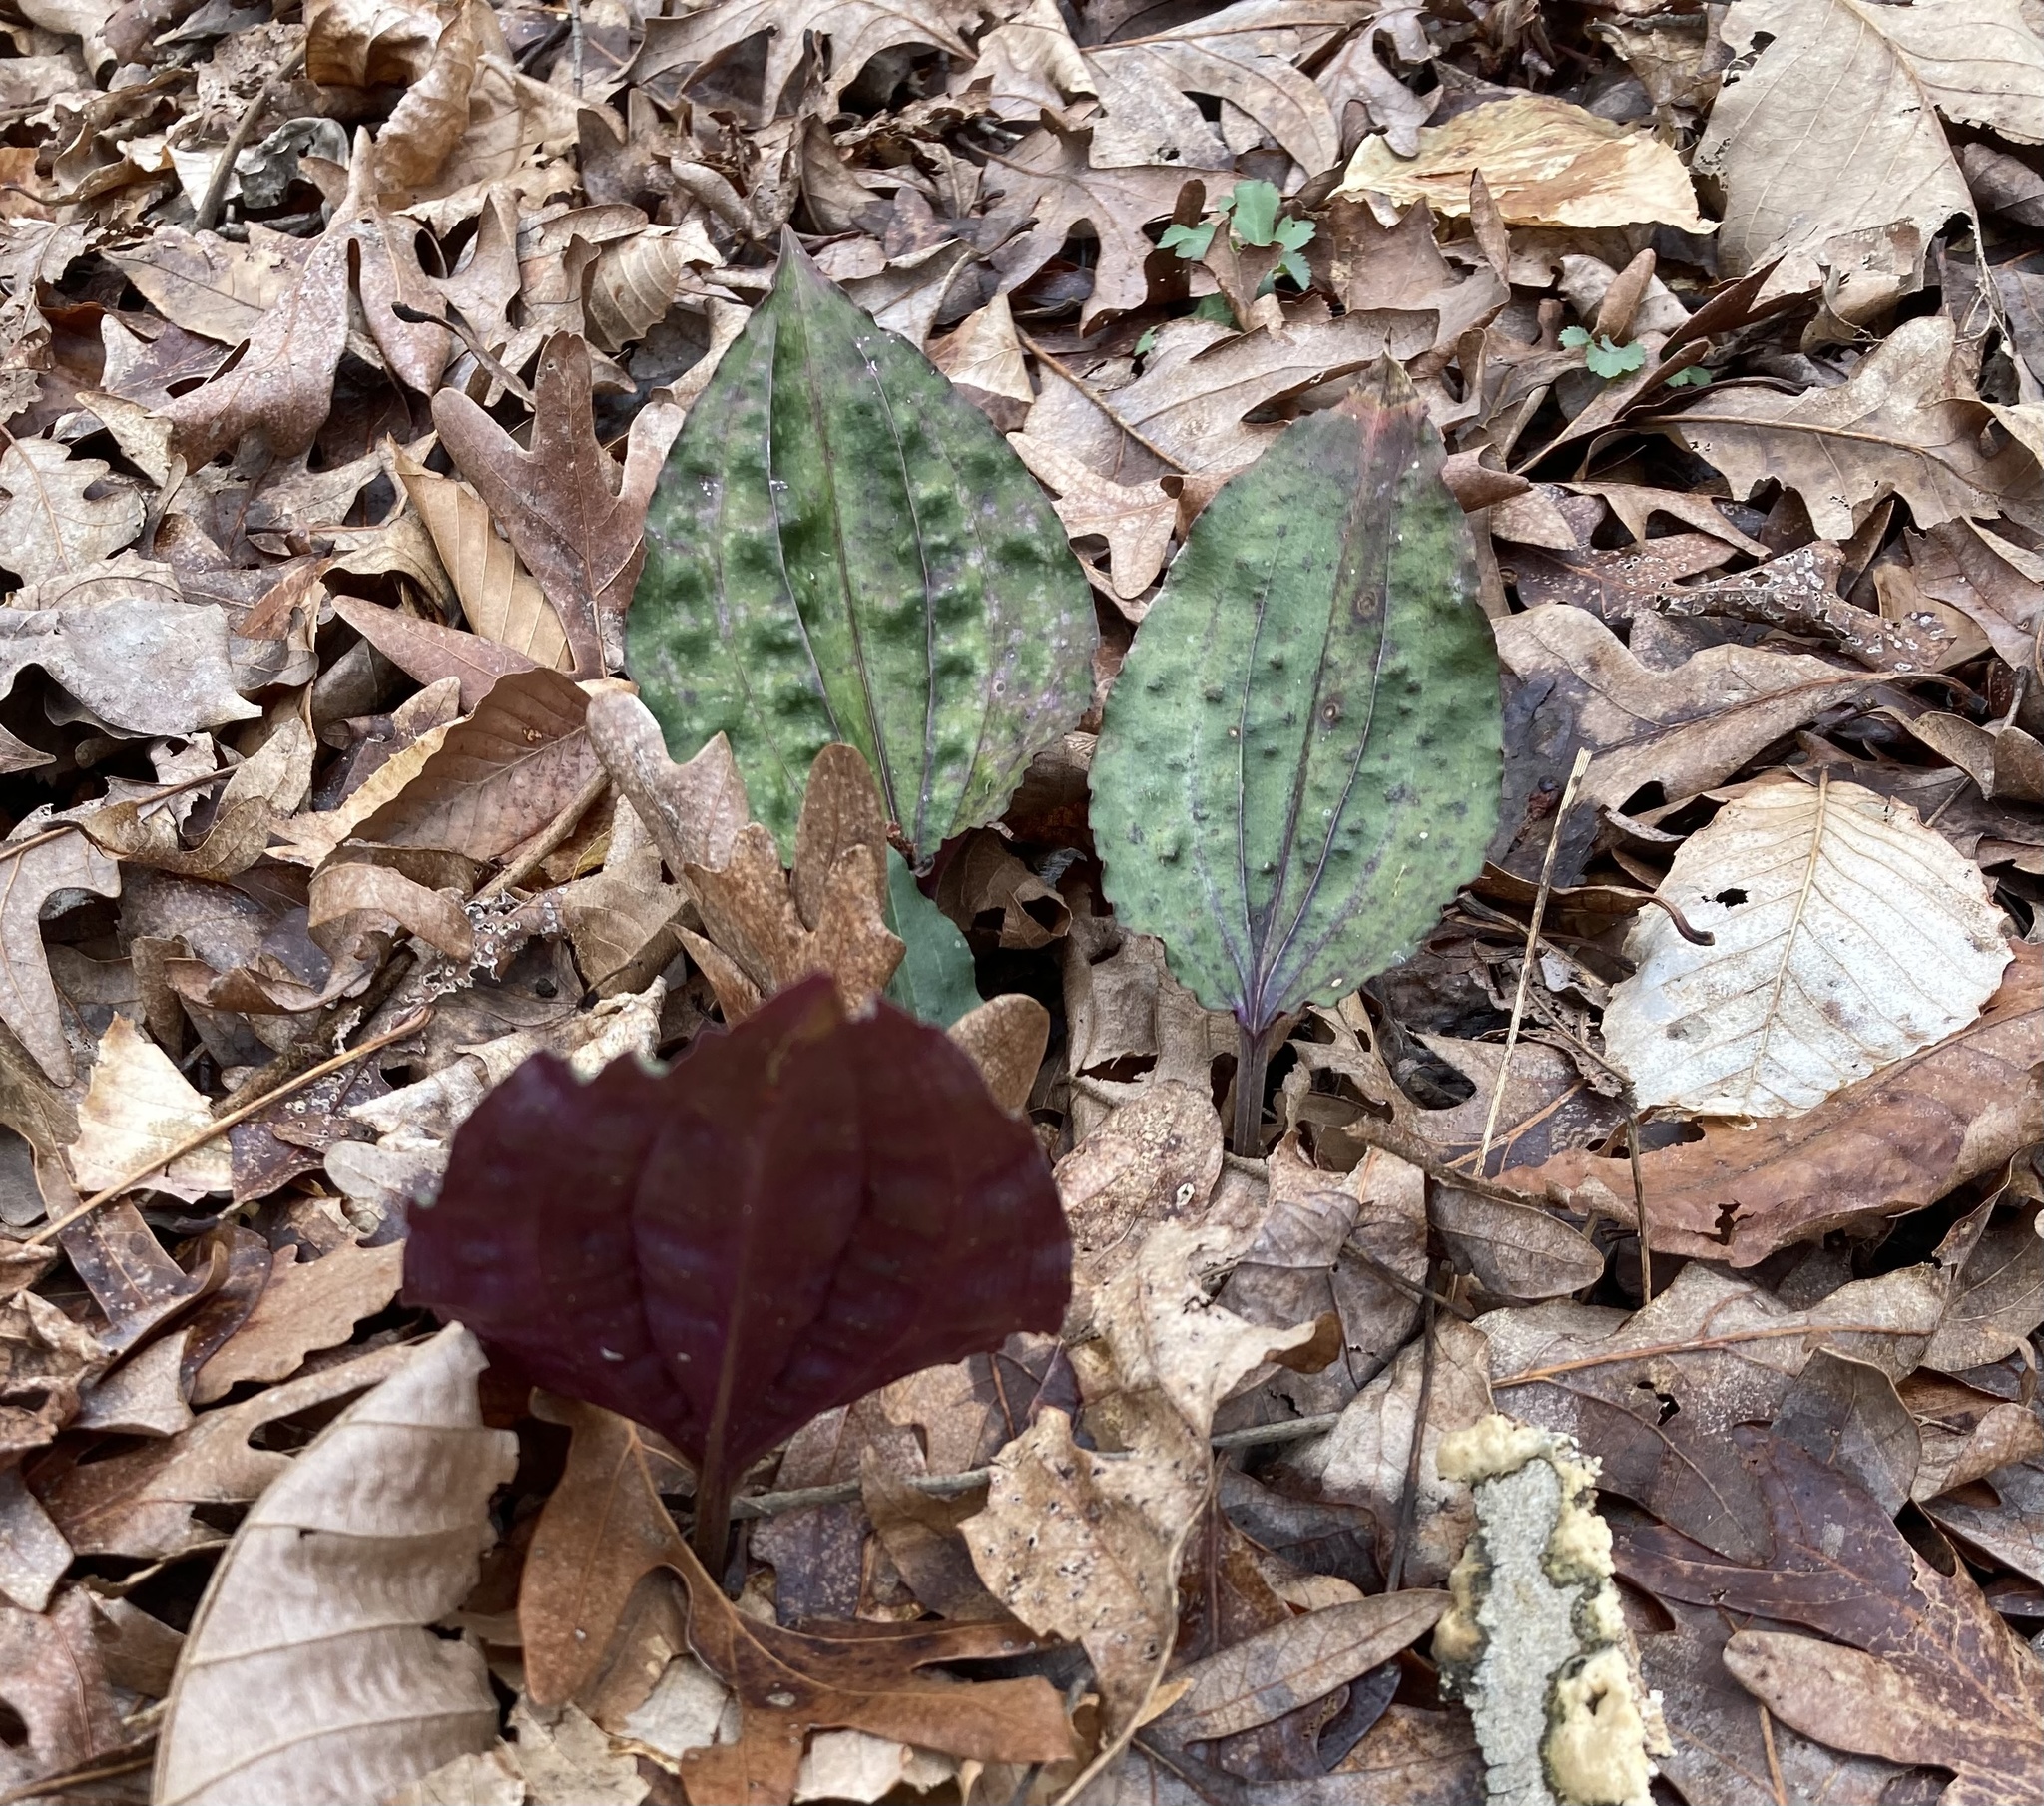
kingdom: Plantae
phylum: Tracheophyta
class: Liliopsida
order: Asparagales
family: Orchidaceae
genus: Tipularia
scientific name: Tipularia discolor
